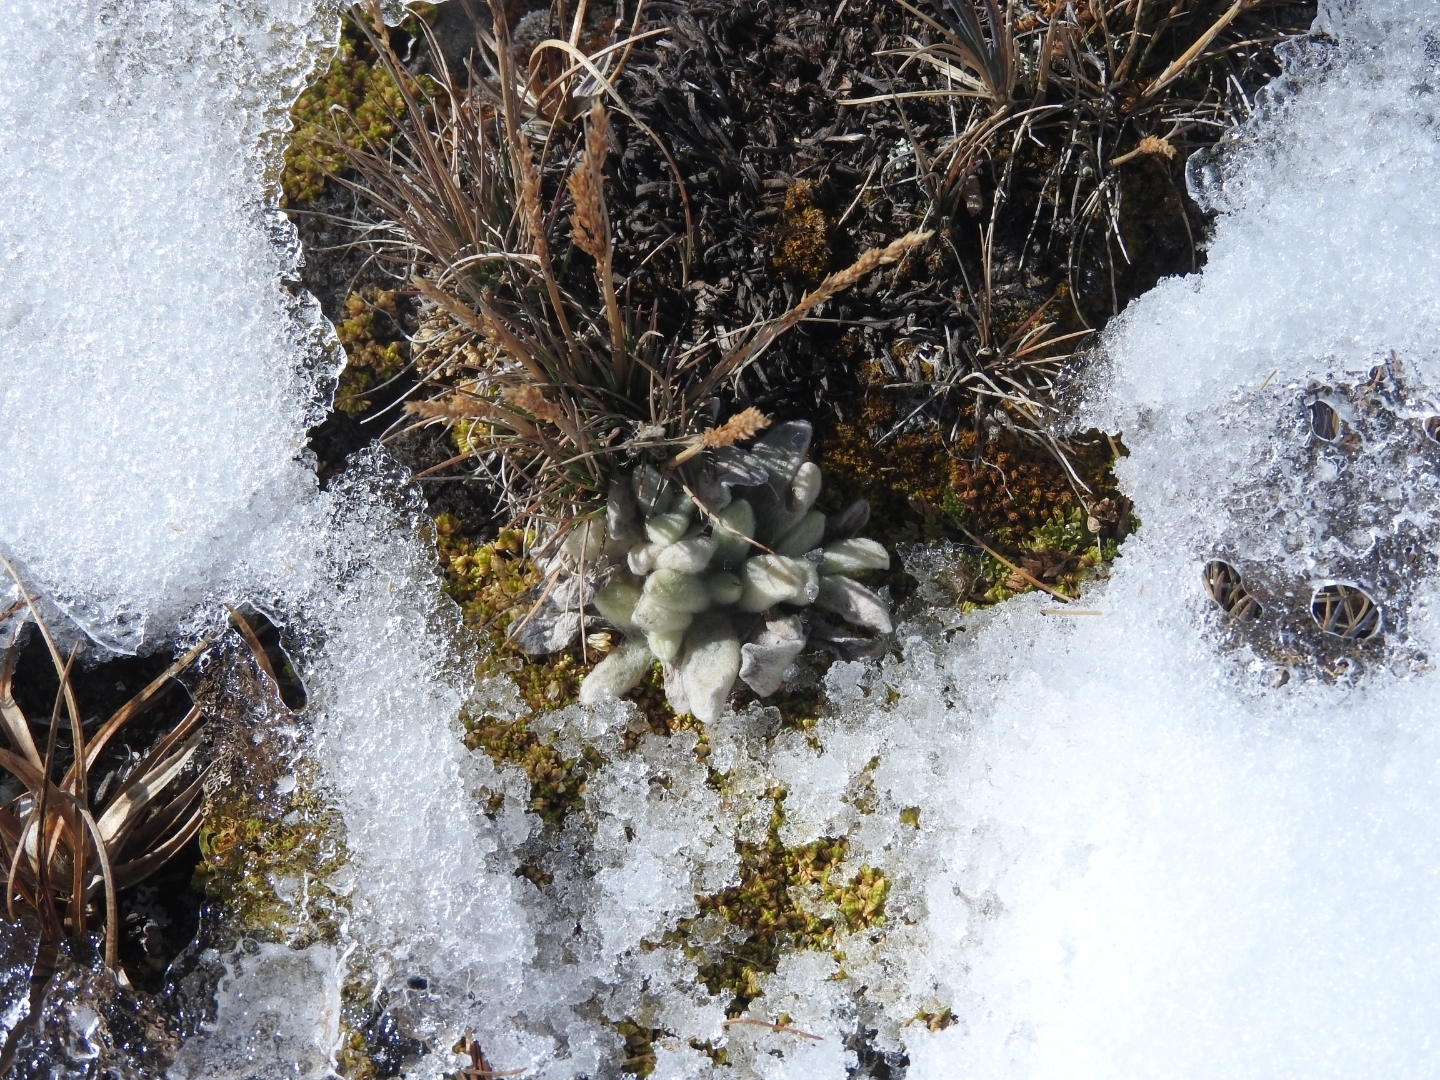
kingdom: Plantae
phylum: Tracheophyta
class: Magnoliopsida
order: Asterales
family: Asteraceae
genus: Senecio
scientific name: Senecio mairetianus
